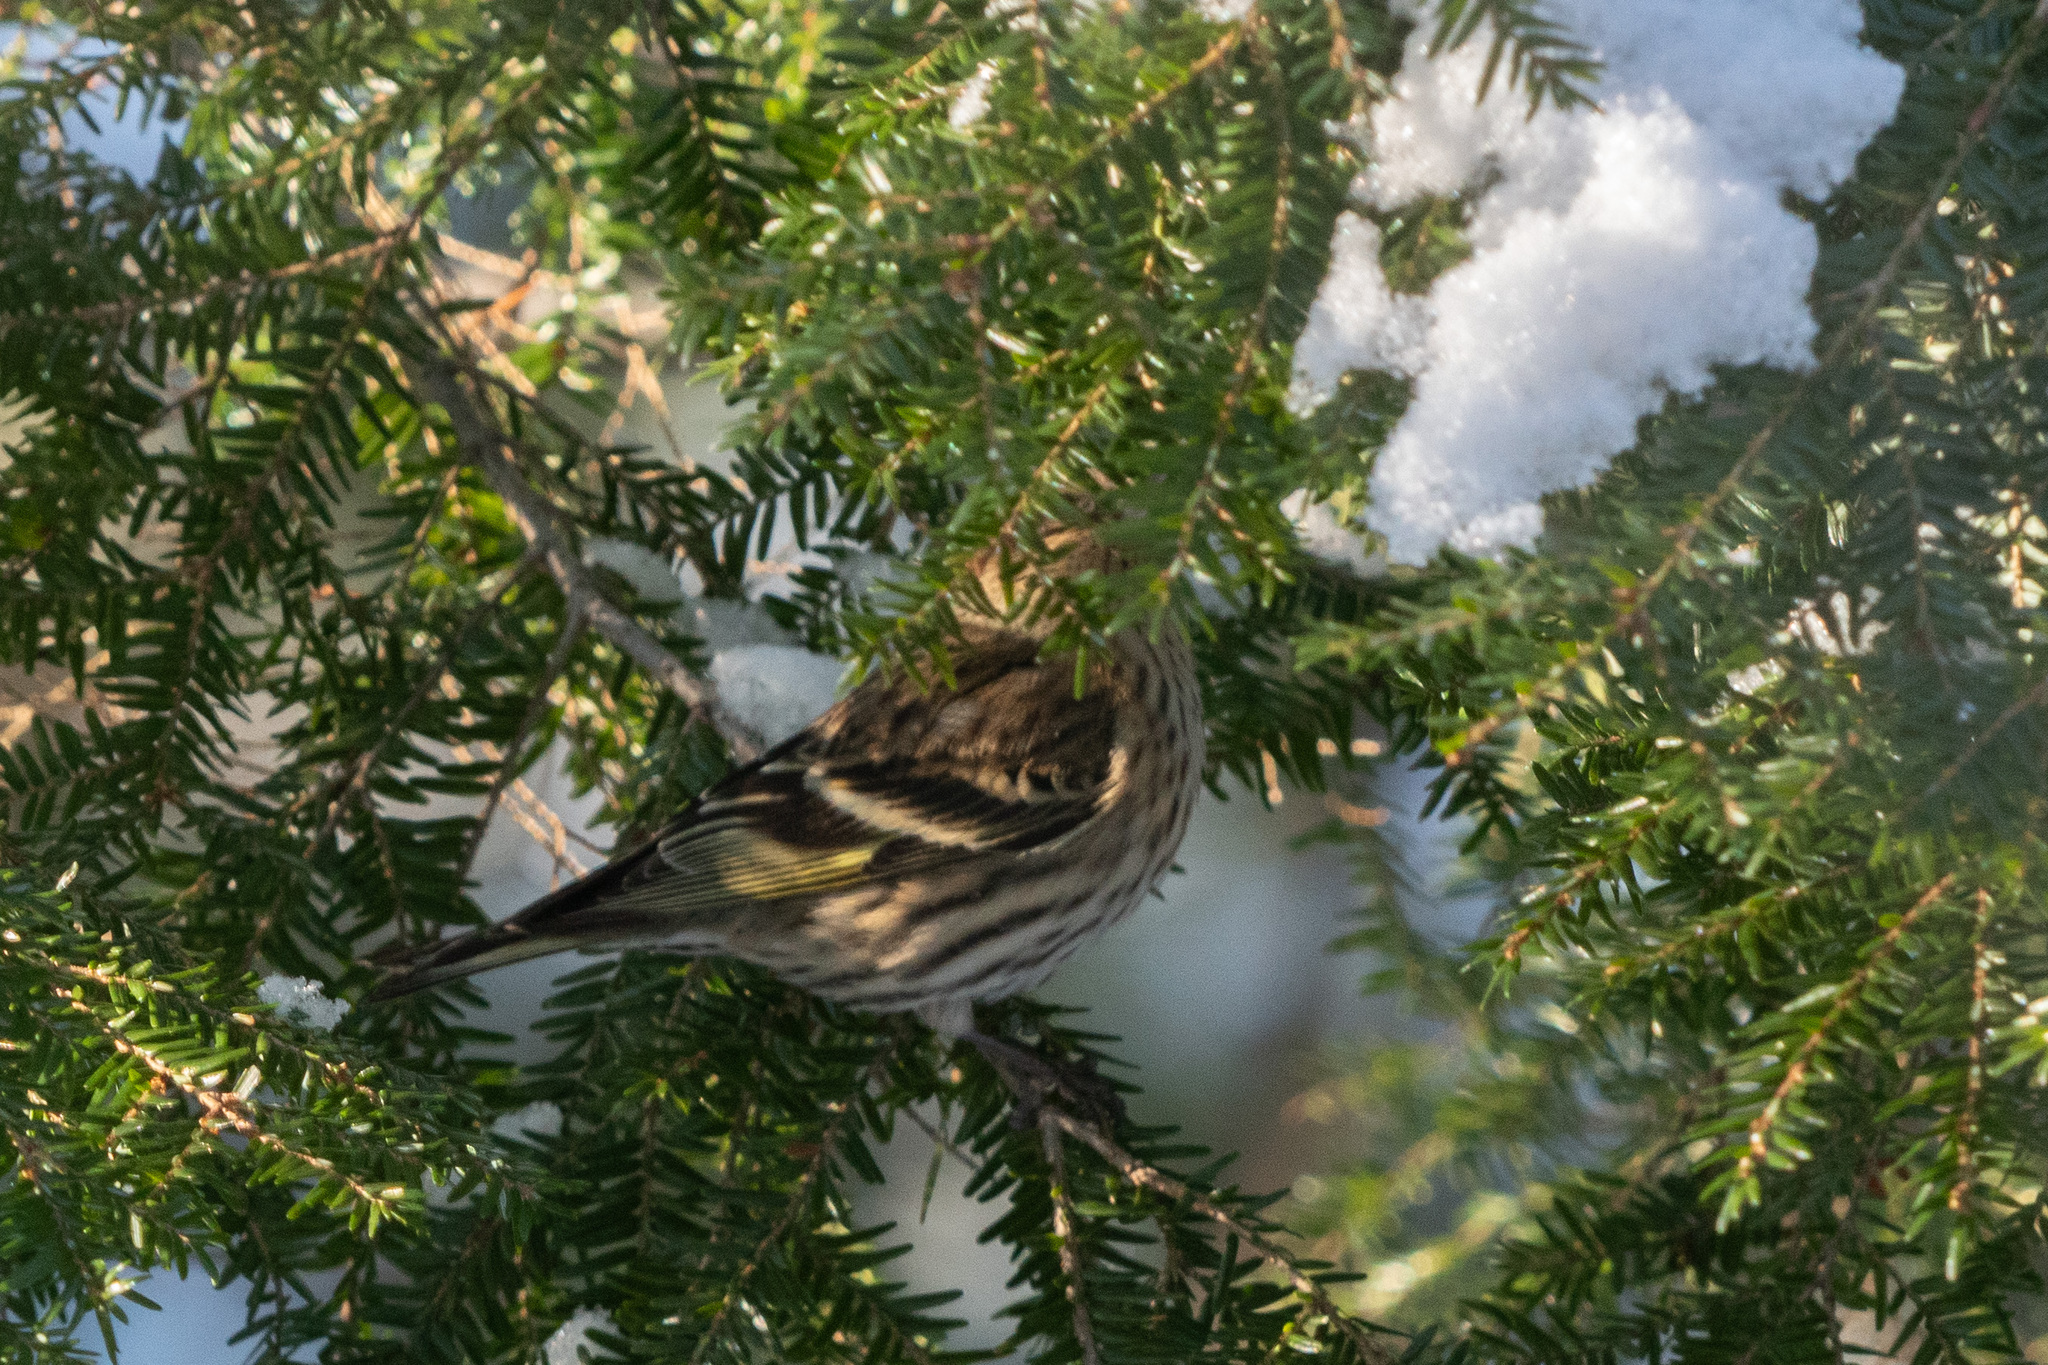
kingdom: Animalia
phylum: Chordata
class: Aves
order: Passeriformes
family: Fringillidae
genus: Spinus
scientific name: Spinus pinus
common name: Pine siskin
